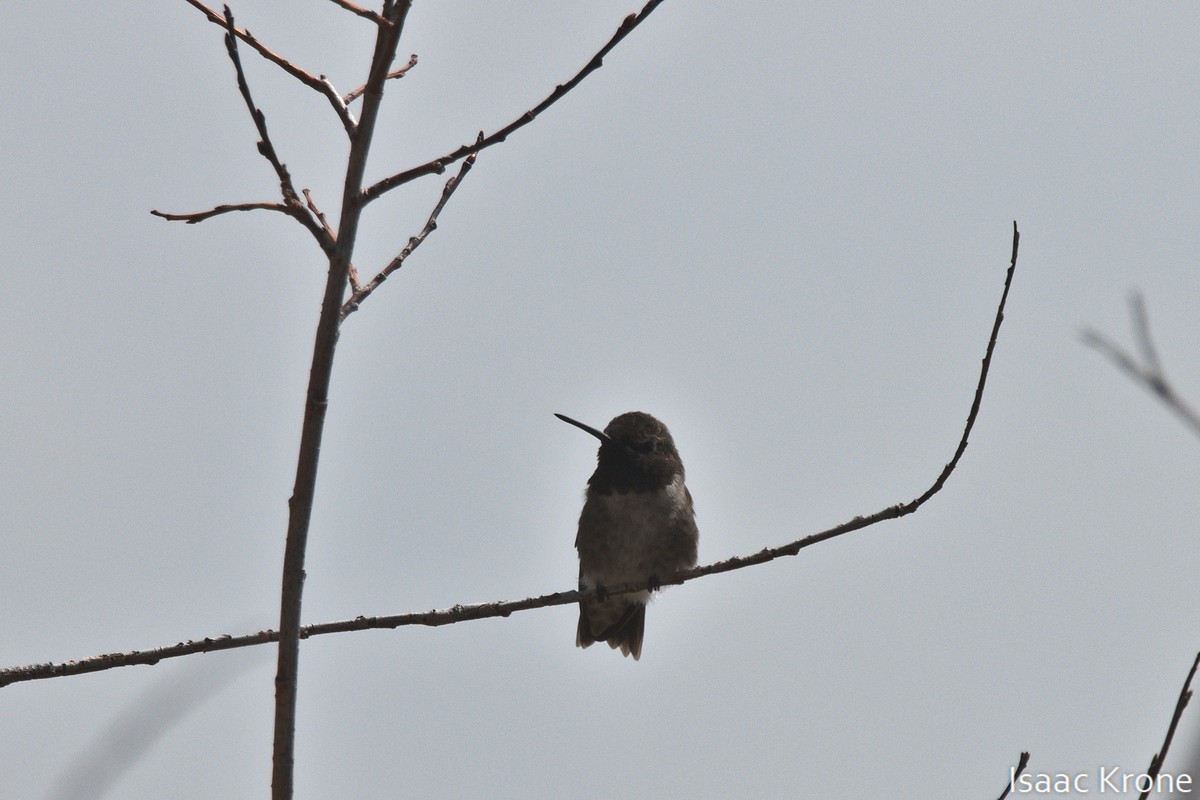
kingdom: Animalia
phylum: Chordata
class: Aves
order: Apodiformes
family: Trochilidae
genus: Archilochus
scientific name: Archilochus alexandri
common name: Black-chinned hummingbird
